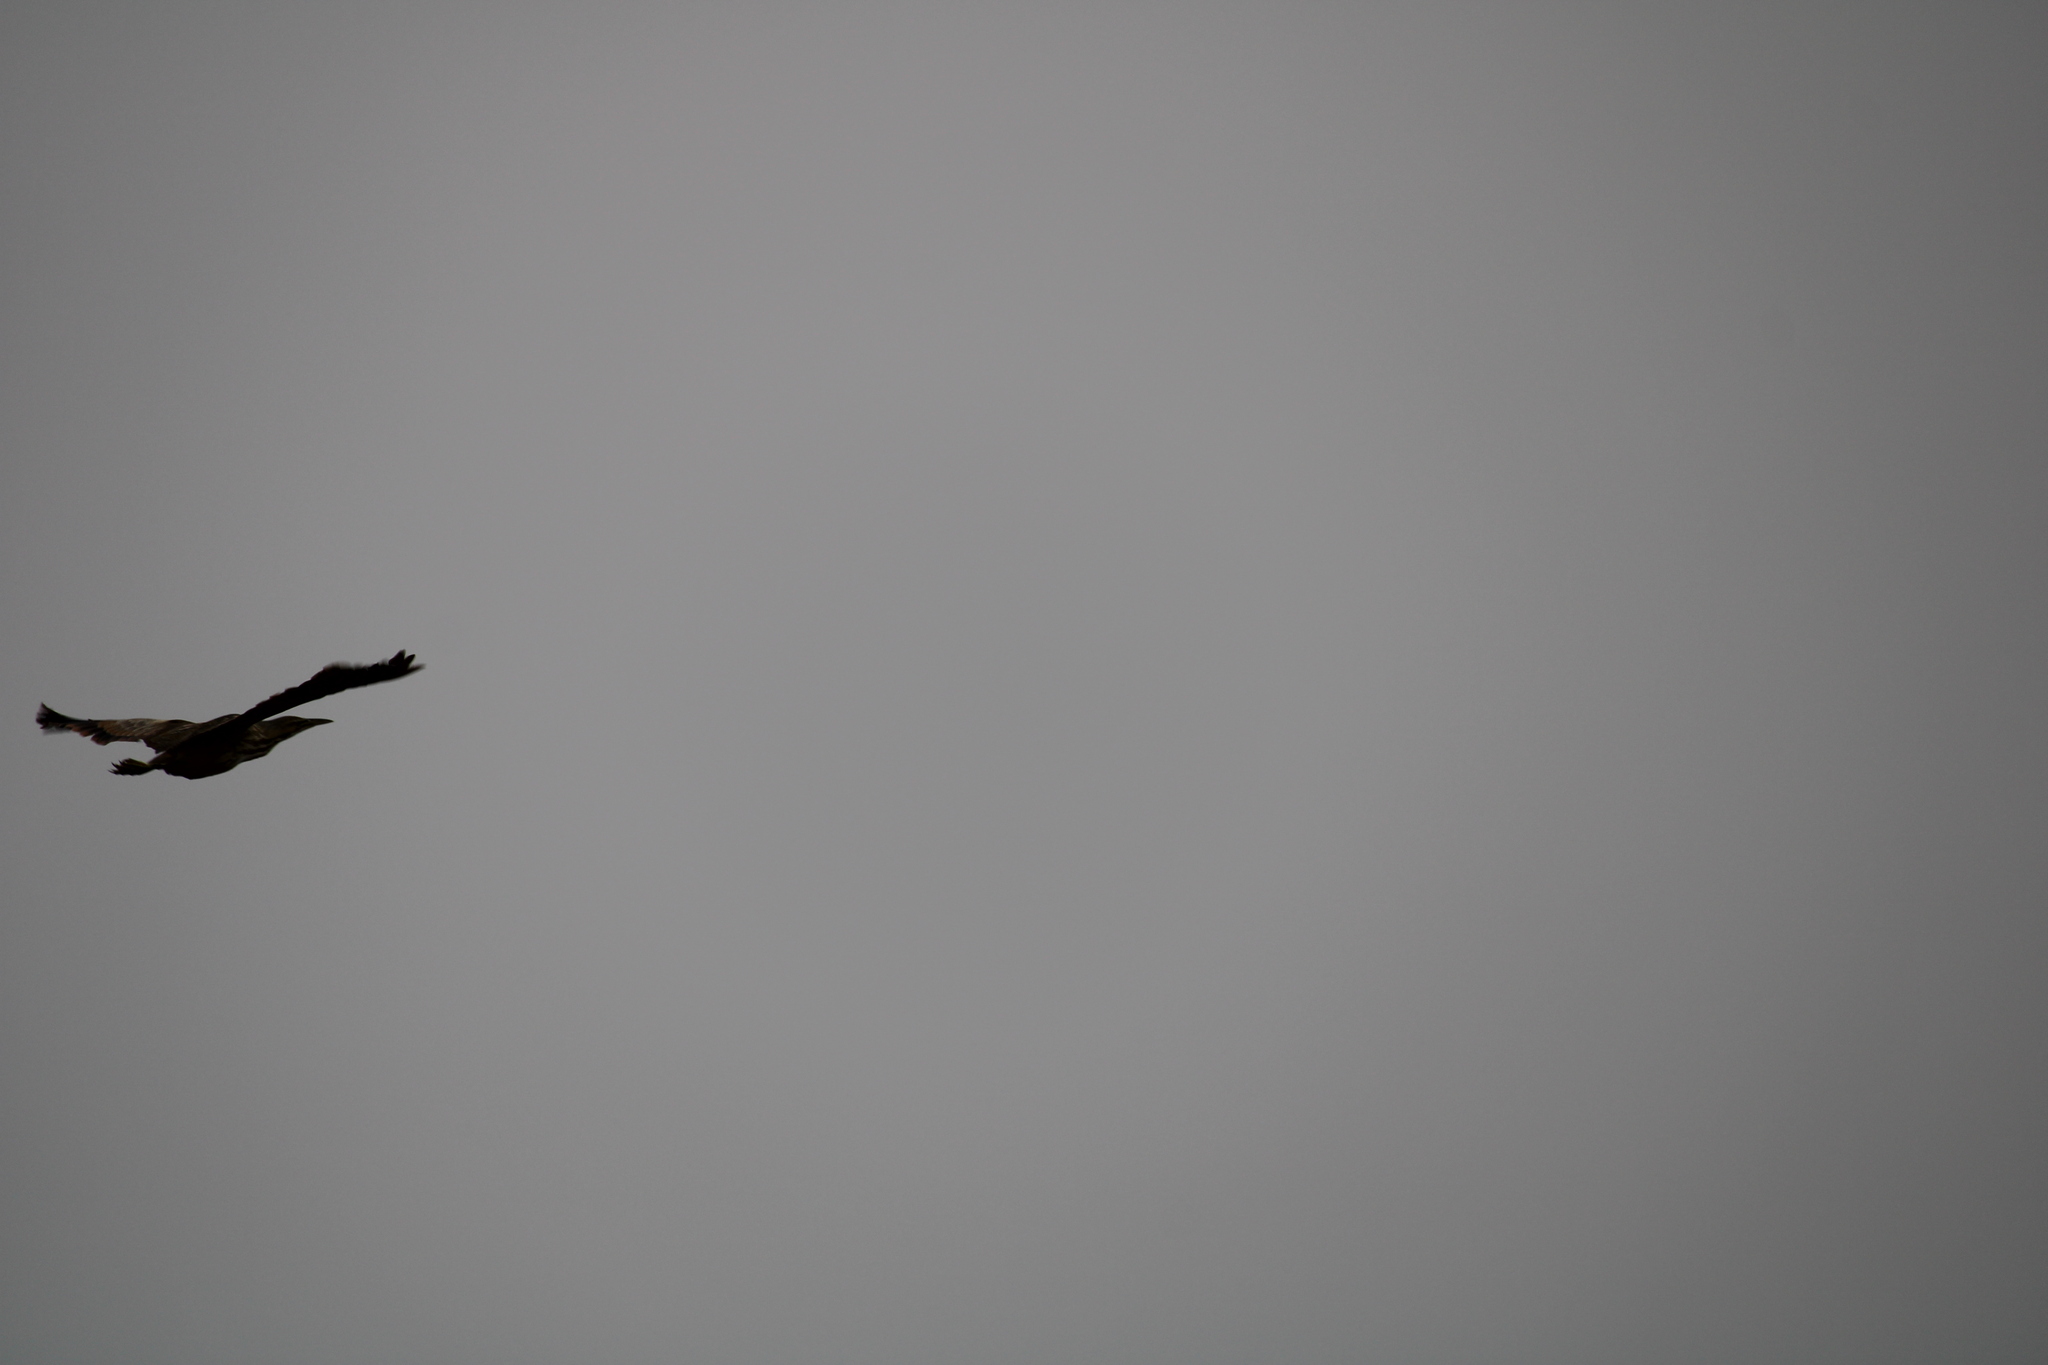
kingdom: Animalia
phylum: Chordata
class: Aves
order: Pelecaniformes
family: Ardeidae
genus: Botaurus
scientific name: Botaurus lentiginosus
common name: American bittern
